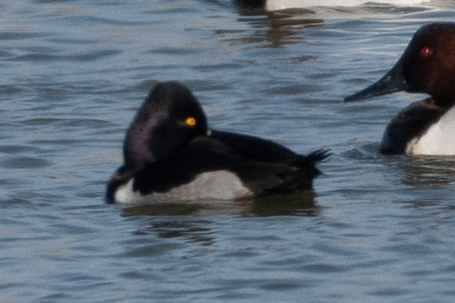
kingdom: Animalia
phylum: Chordata
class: Aves
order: Anseriformes
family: Anatidae
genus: Aythya
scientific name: Aythya collaris
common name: Ring-necked duck
